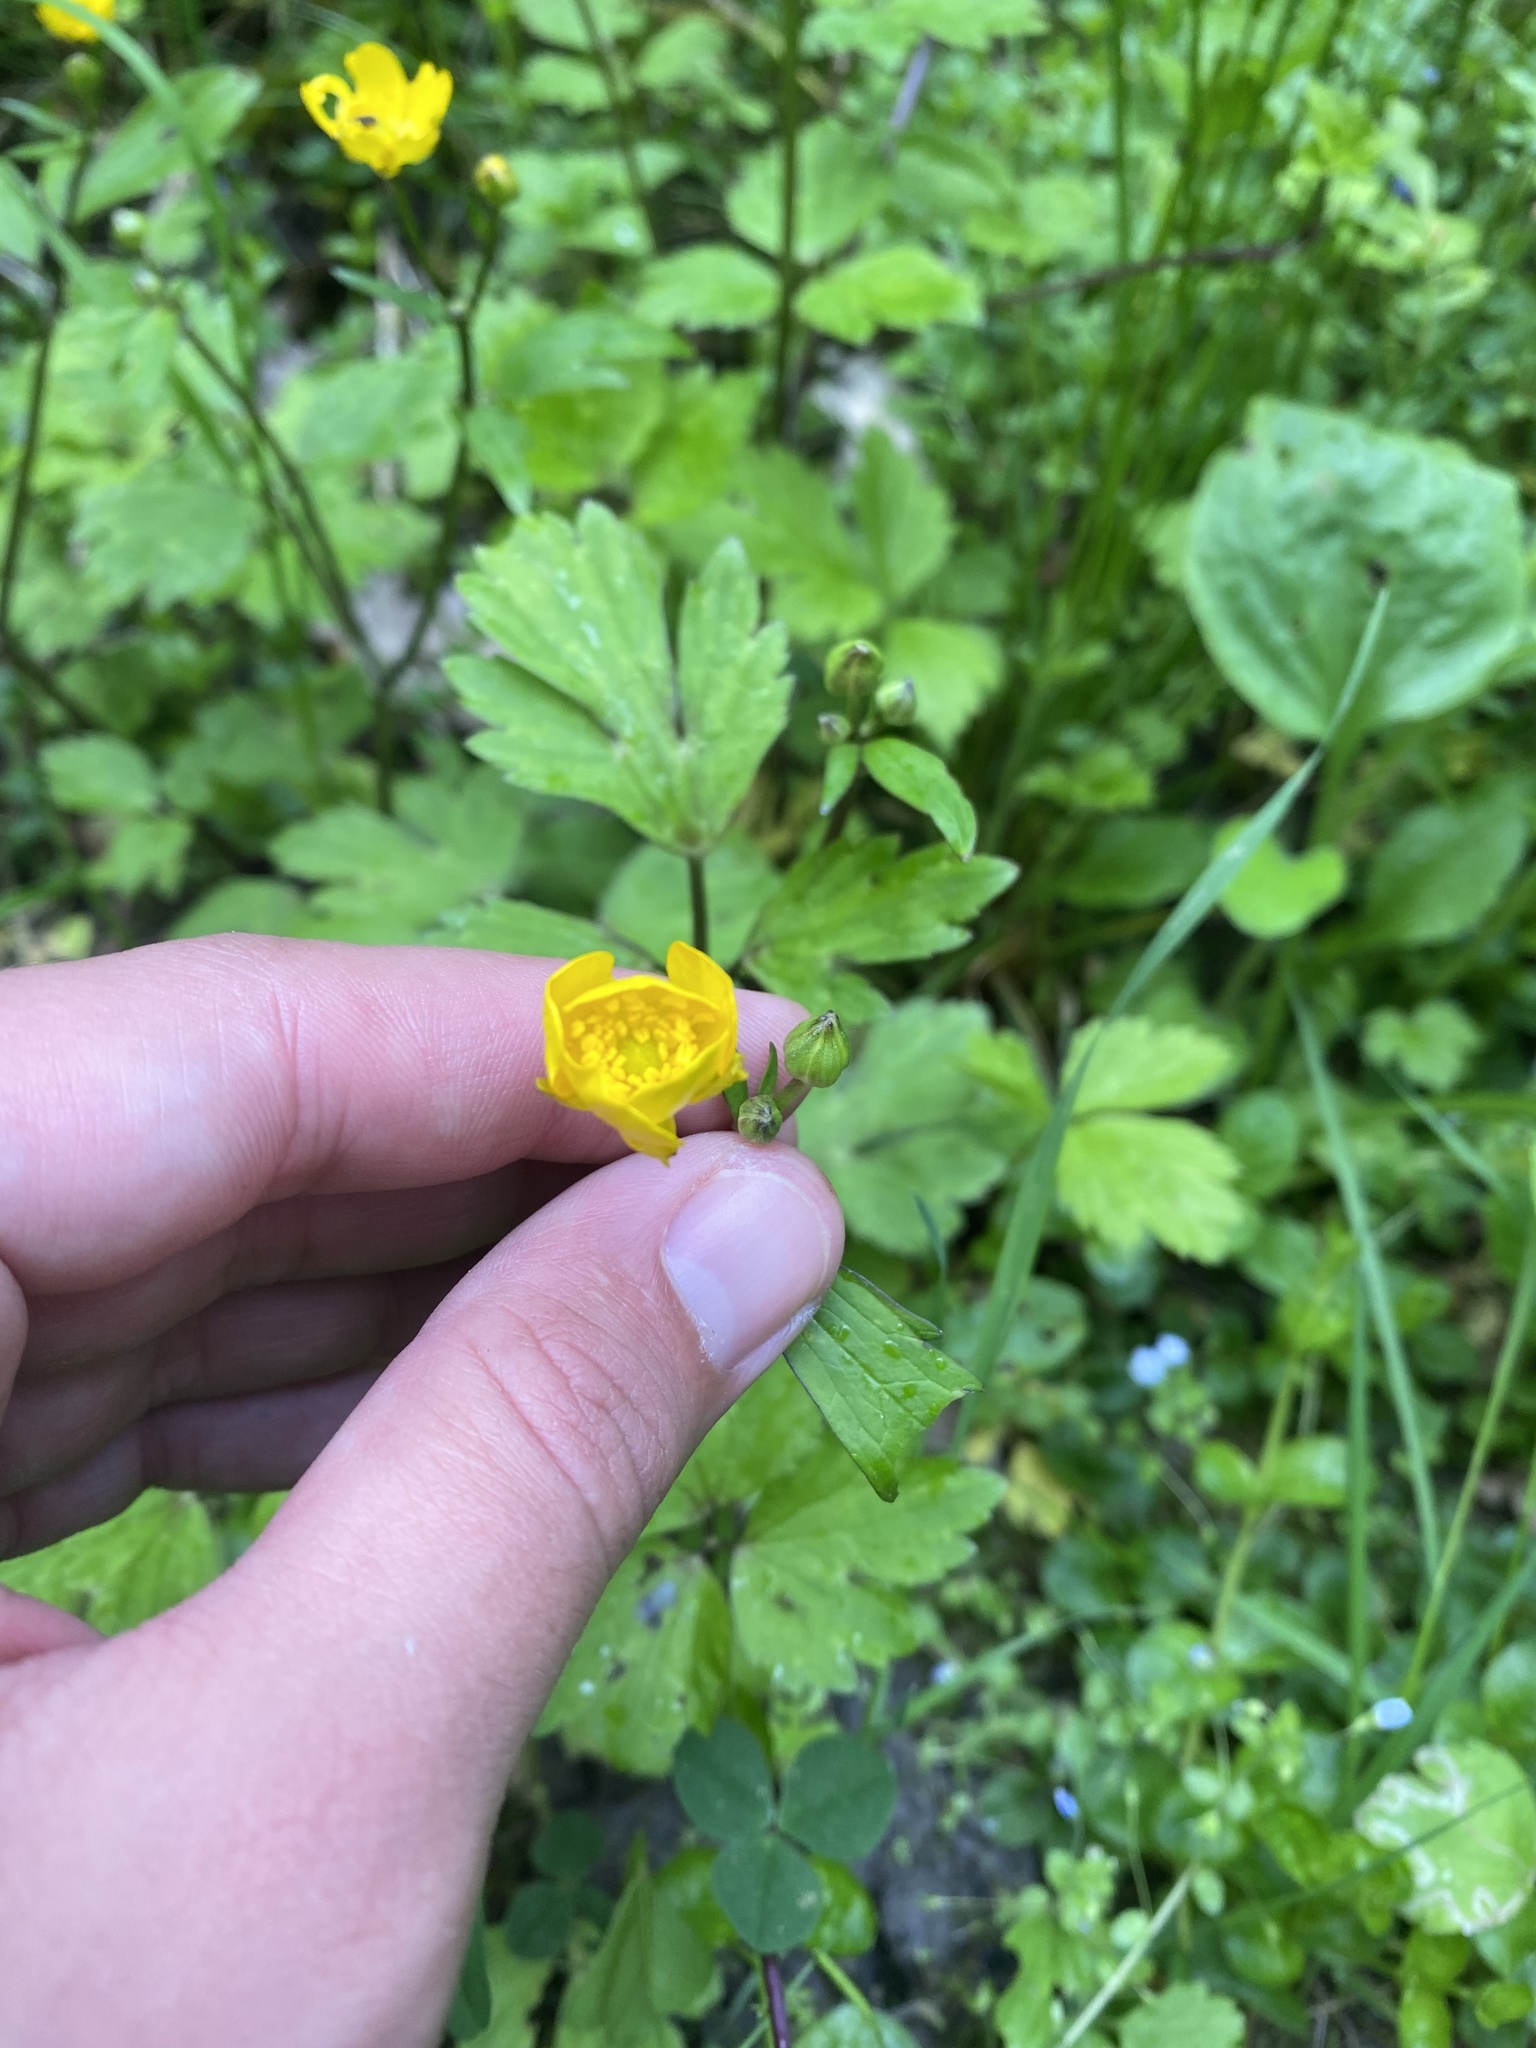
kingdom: Plantae
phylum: Tracheophyta
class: Magnoliopsida
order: Ranunculales
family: Ranunculaceae
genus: Ranunculus
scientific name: Ranunculus repens
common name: Creeping buttercup
